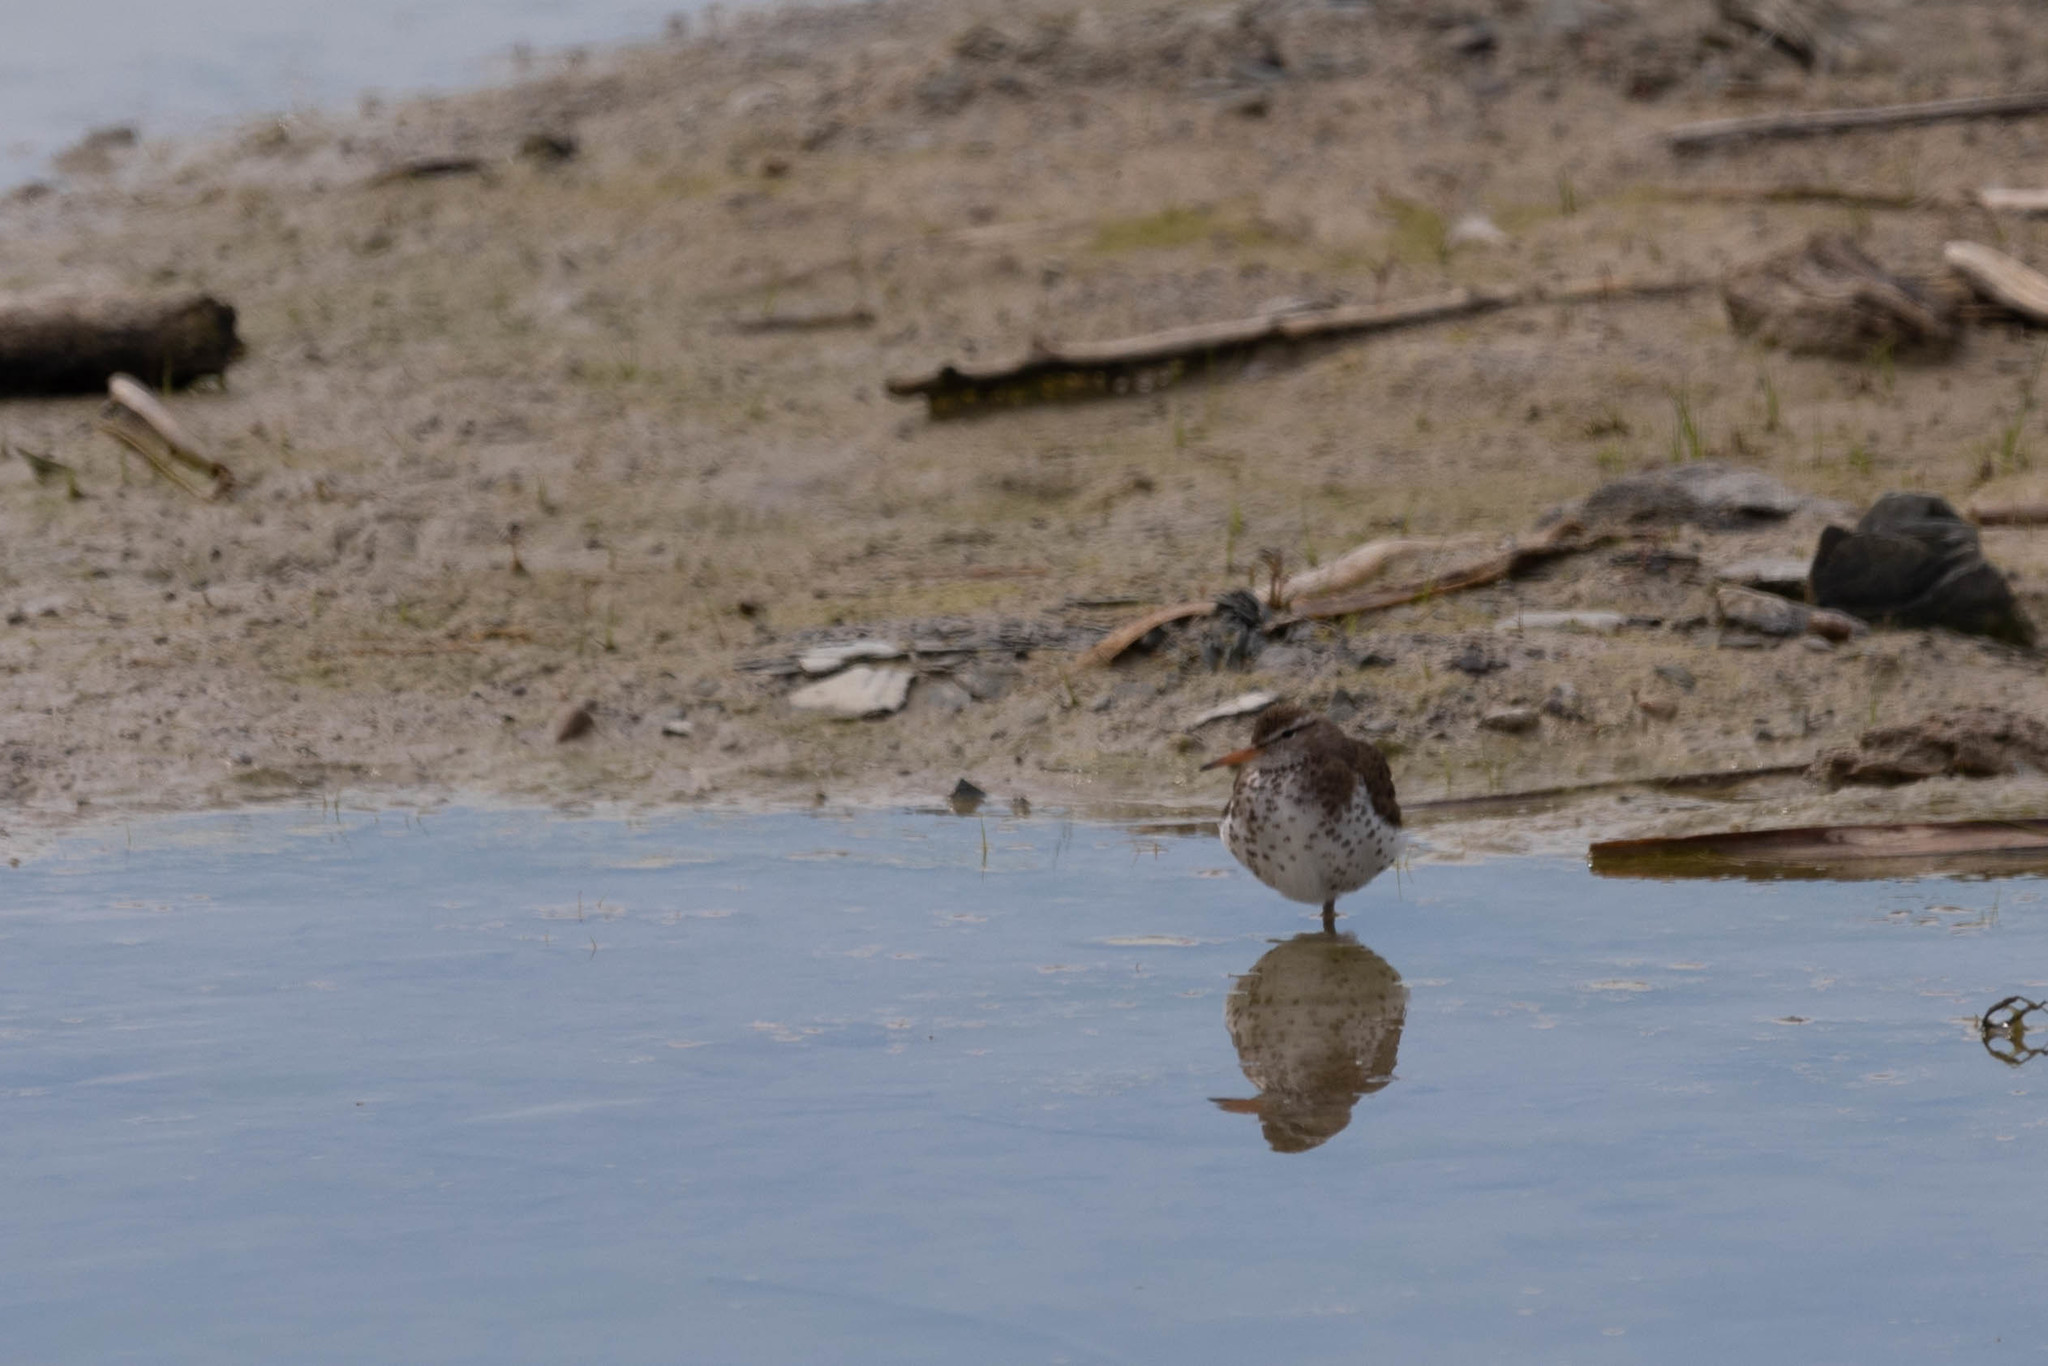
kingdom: Animalia
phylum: Chordata
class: Aves
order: Charadriiformes
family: Scolopacidae
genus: Actitis
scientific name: Actitis macularius
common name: Spotted sandpiper
